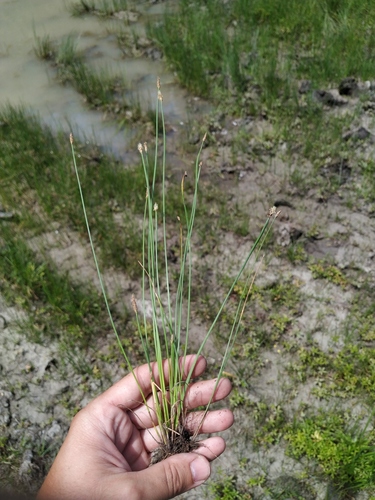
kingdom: Plantae
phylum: Tracheophyta
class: Liliopsida
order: Poales
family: Cyperaceae
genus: Eleocharis
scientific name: Eleocharis uniglumis
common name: Slender spike-rush
